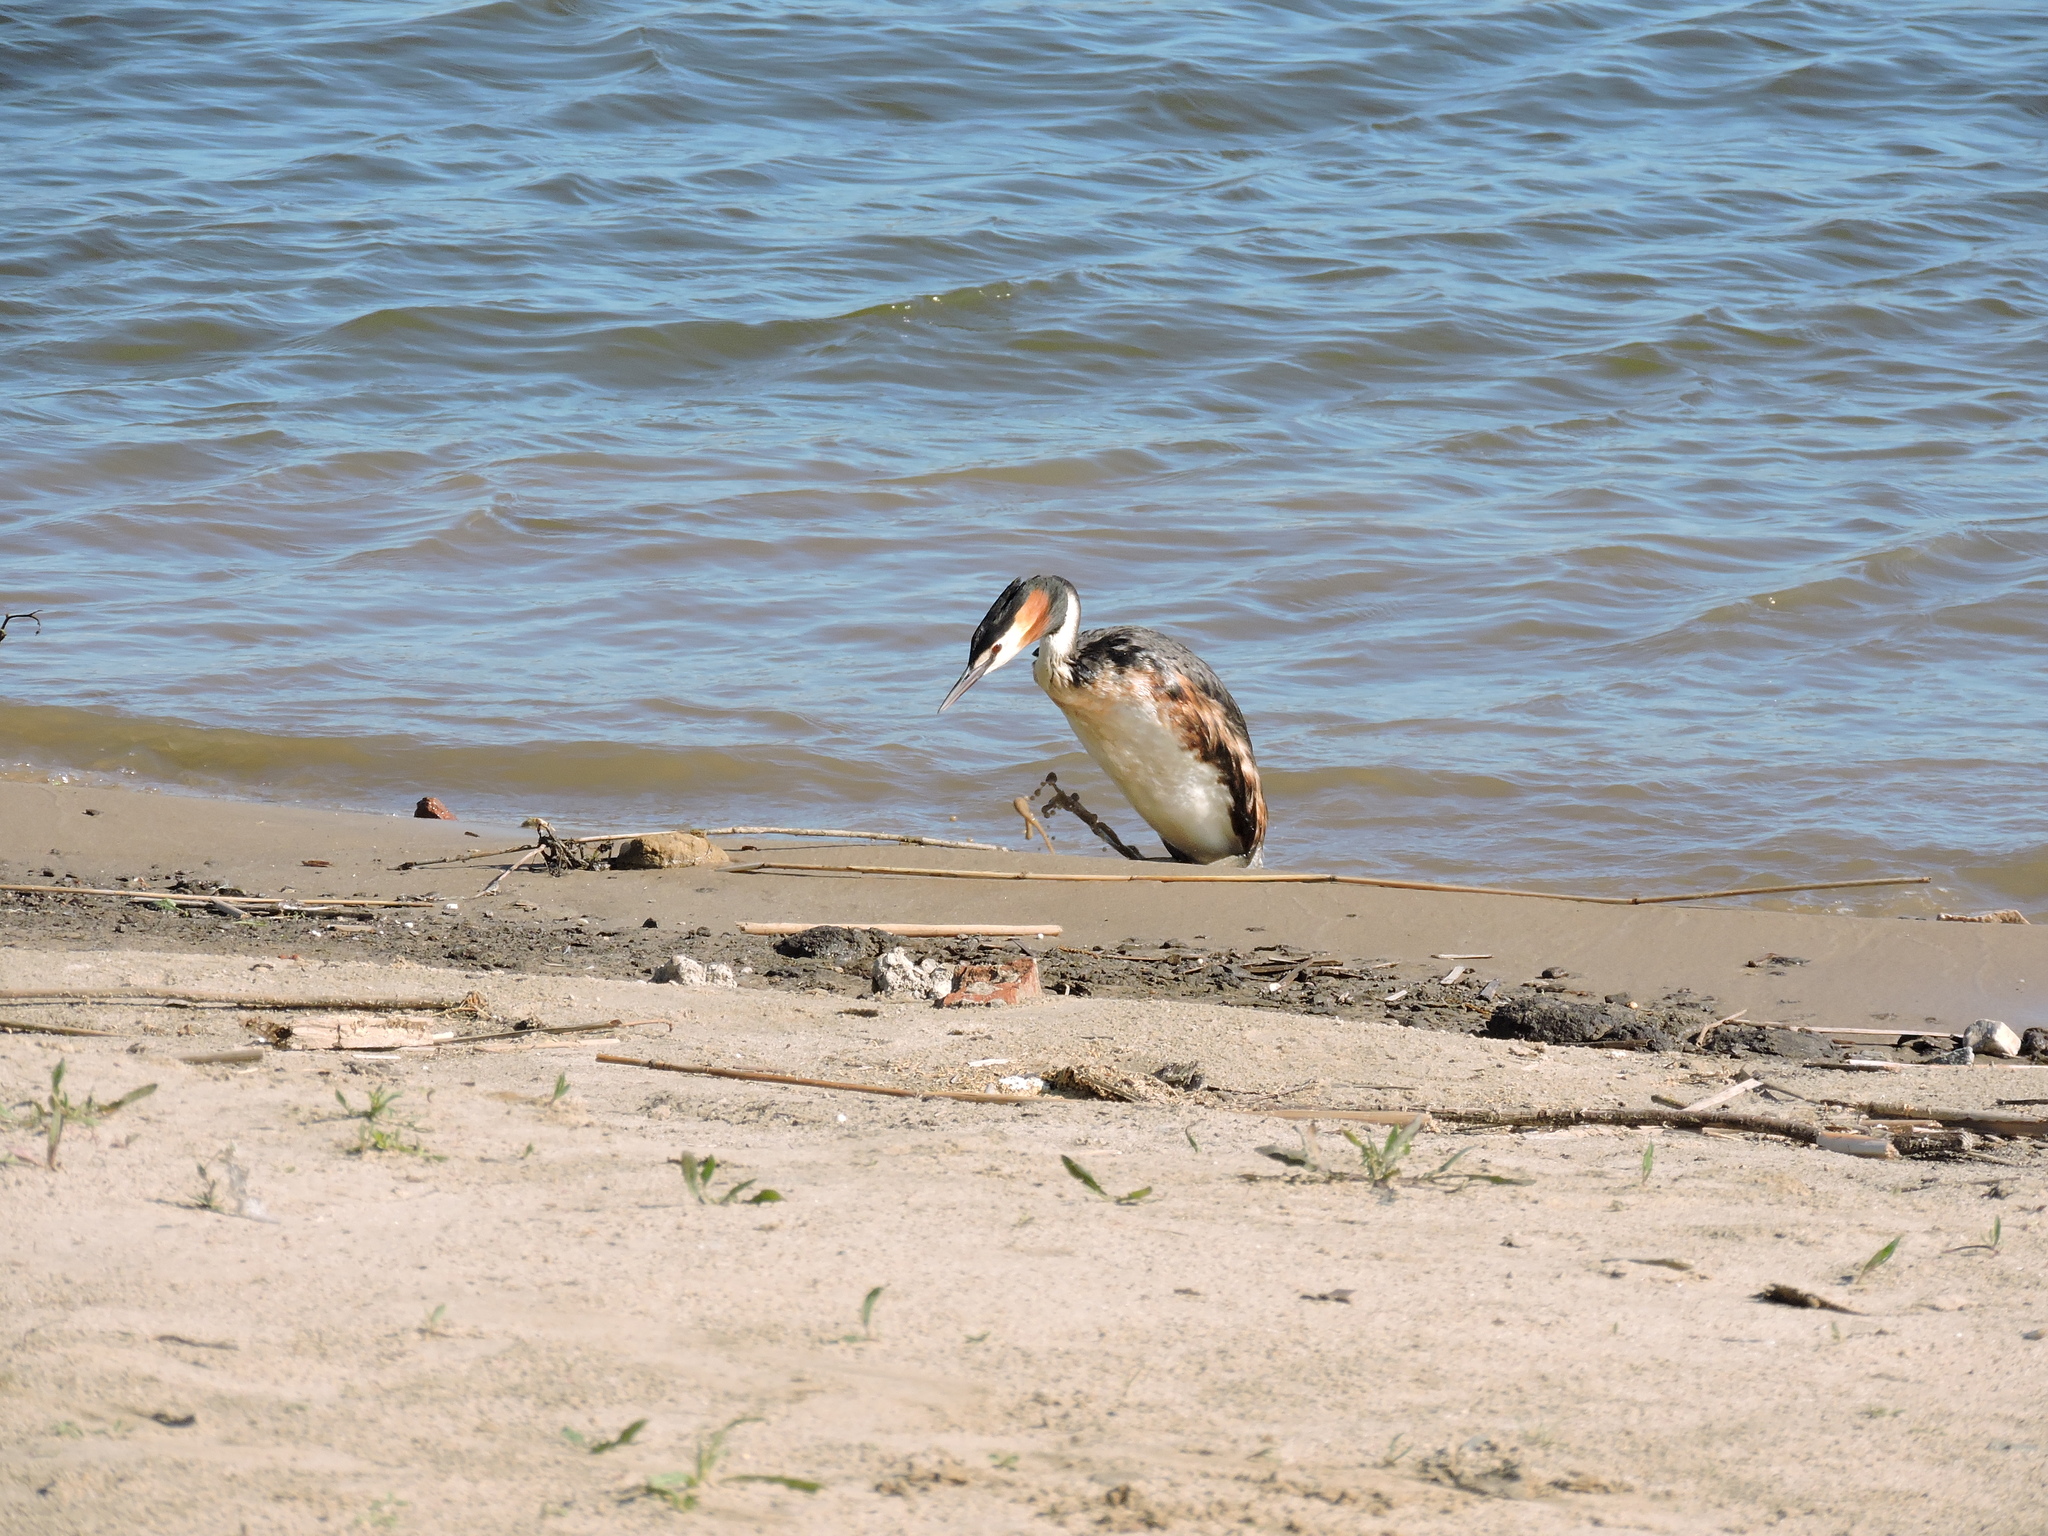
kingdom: Animalia
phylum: Chordata
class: Aves
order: Podicipediformes
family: Podicipedidae
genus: Podiceps
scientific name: Podiceps cristatus
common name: Great crested grebe
